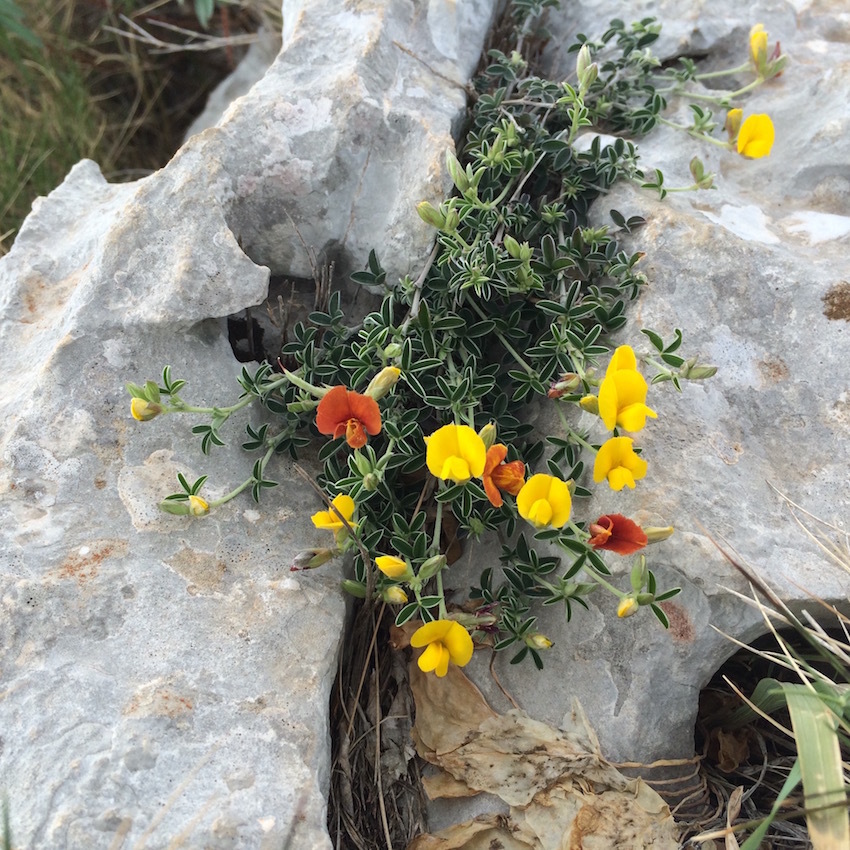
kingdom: Plantae
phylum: Tracheophyta
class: Magnoliopsida
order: Fabales
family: Fabaceae
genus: Argyrolobium
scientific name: Argyrolobium zanonii
